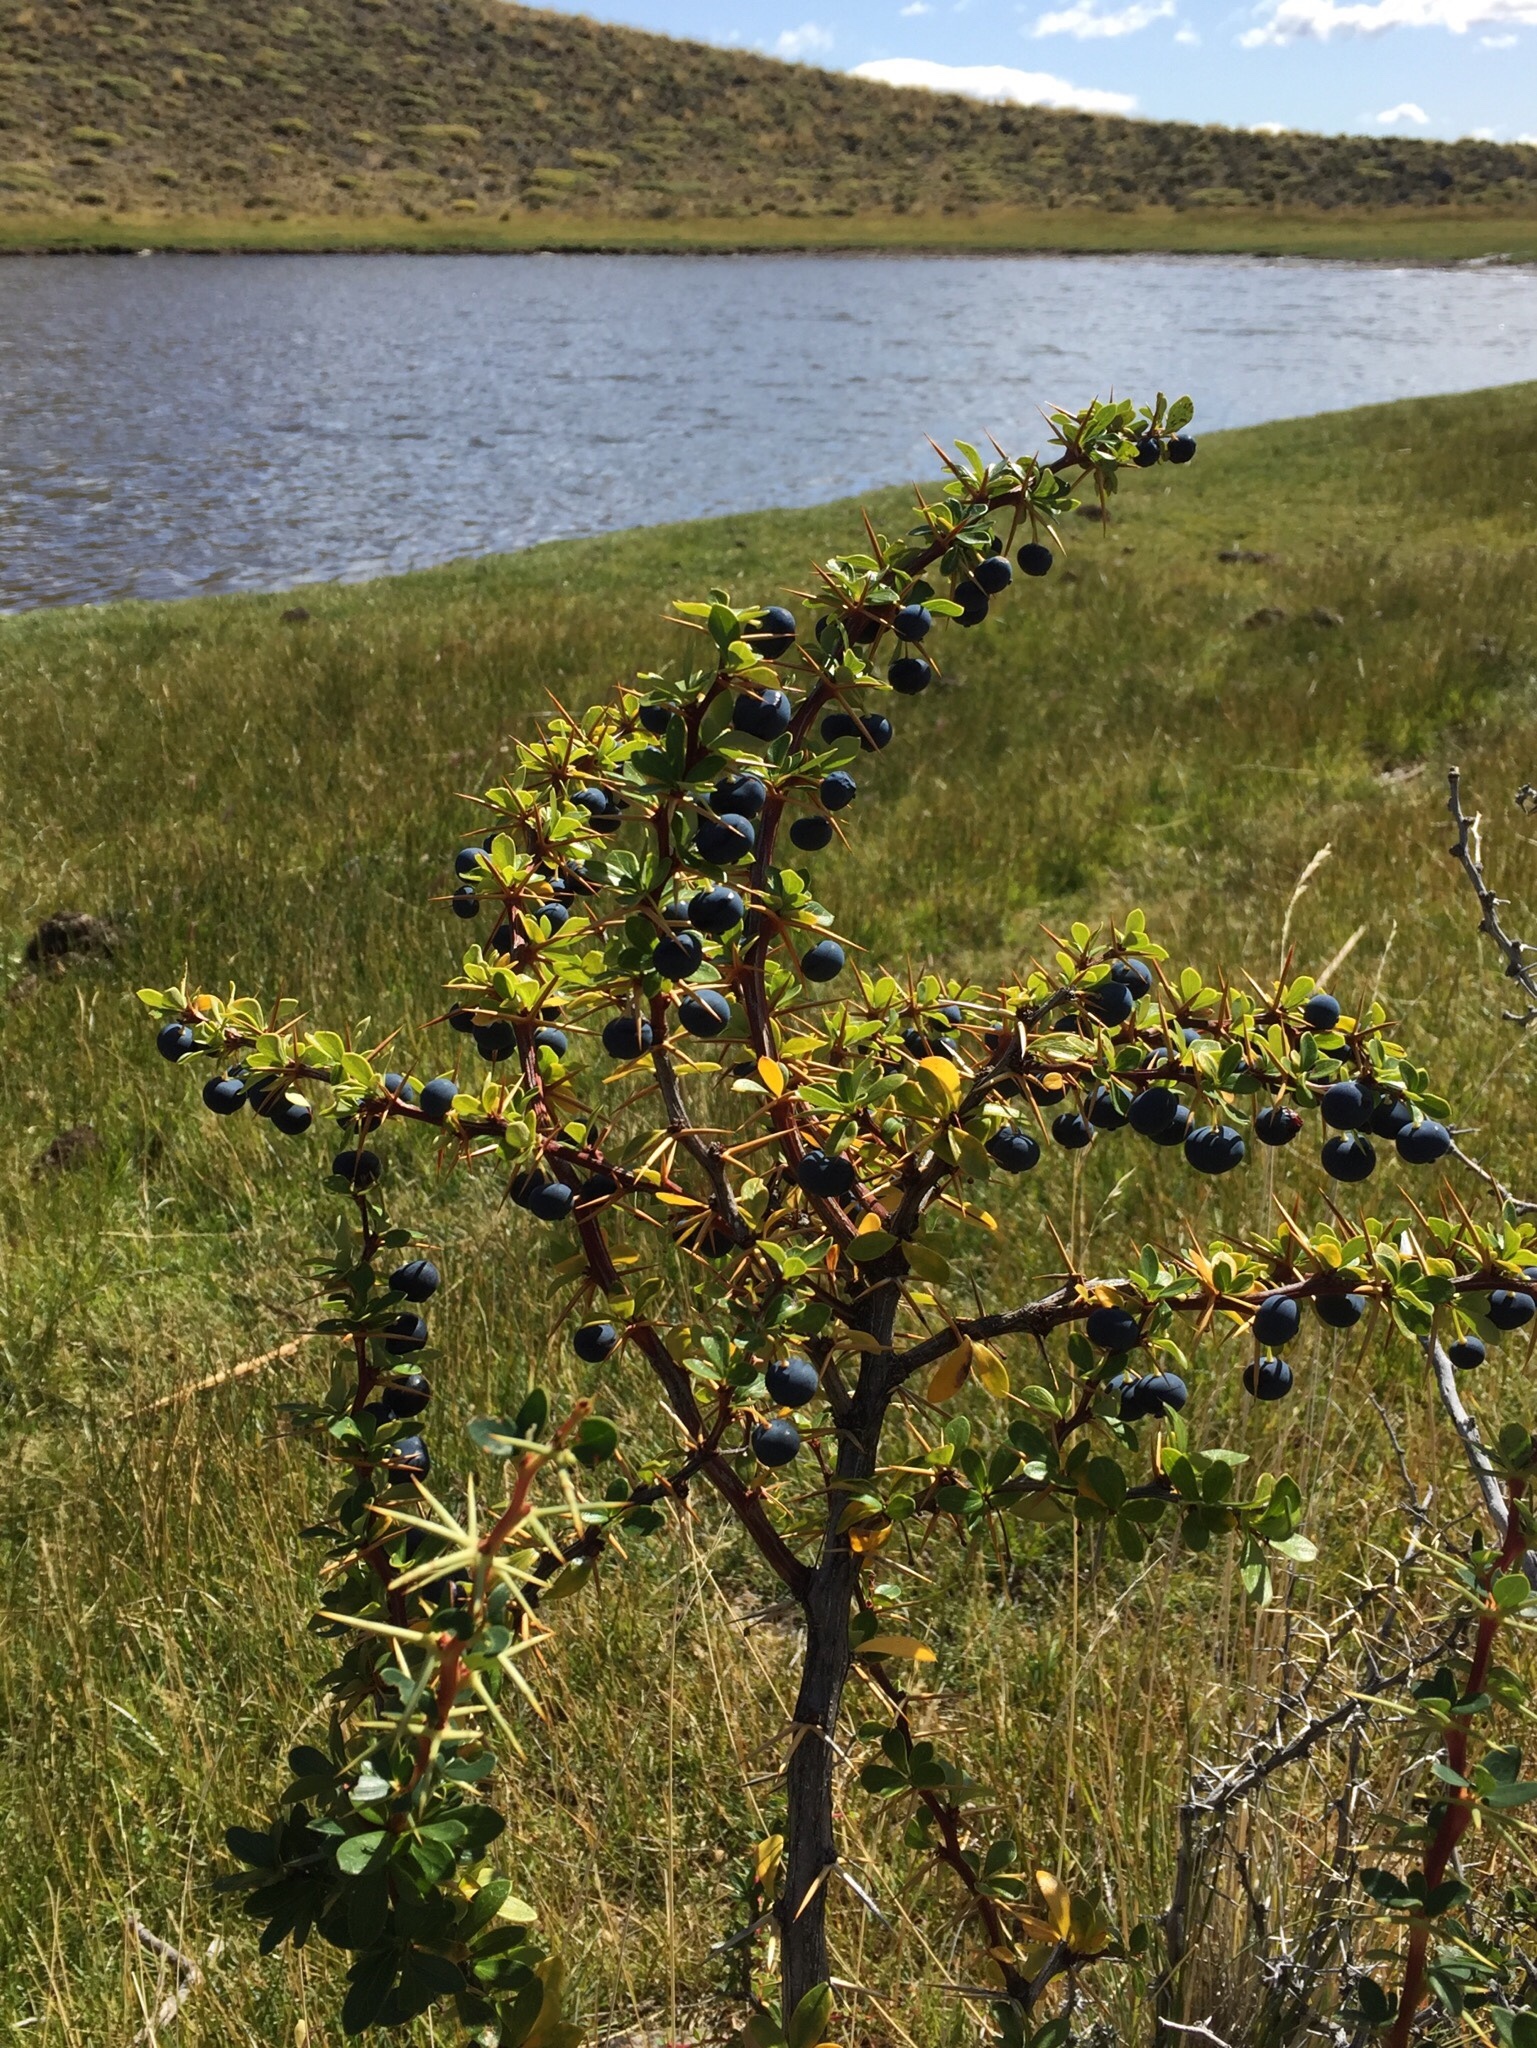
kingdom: Plantae
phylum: Tracheophyta
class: Magnoliopsida
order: Ranunculales
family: Berberidaceae
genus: Berberis
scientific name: Berberis microphylla
